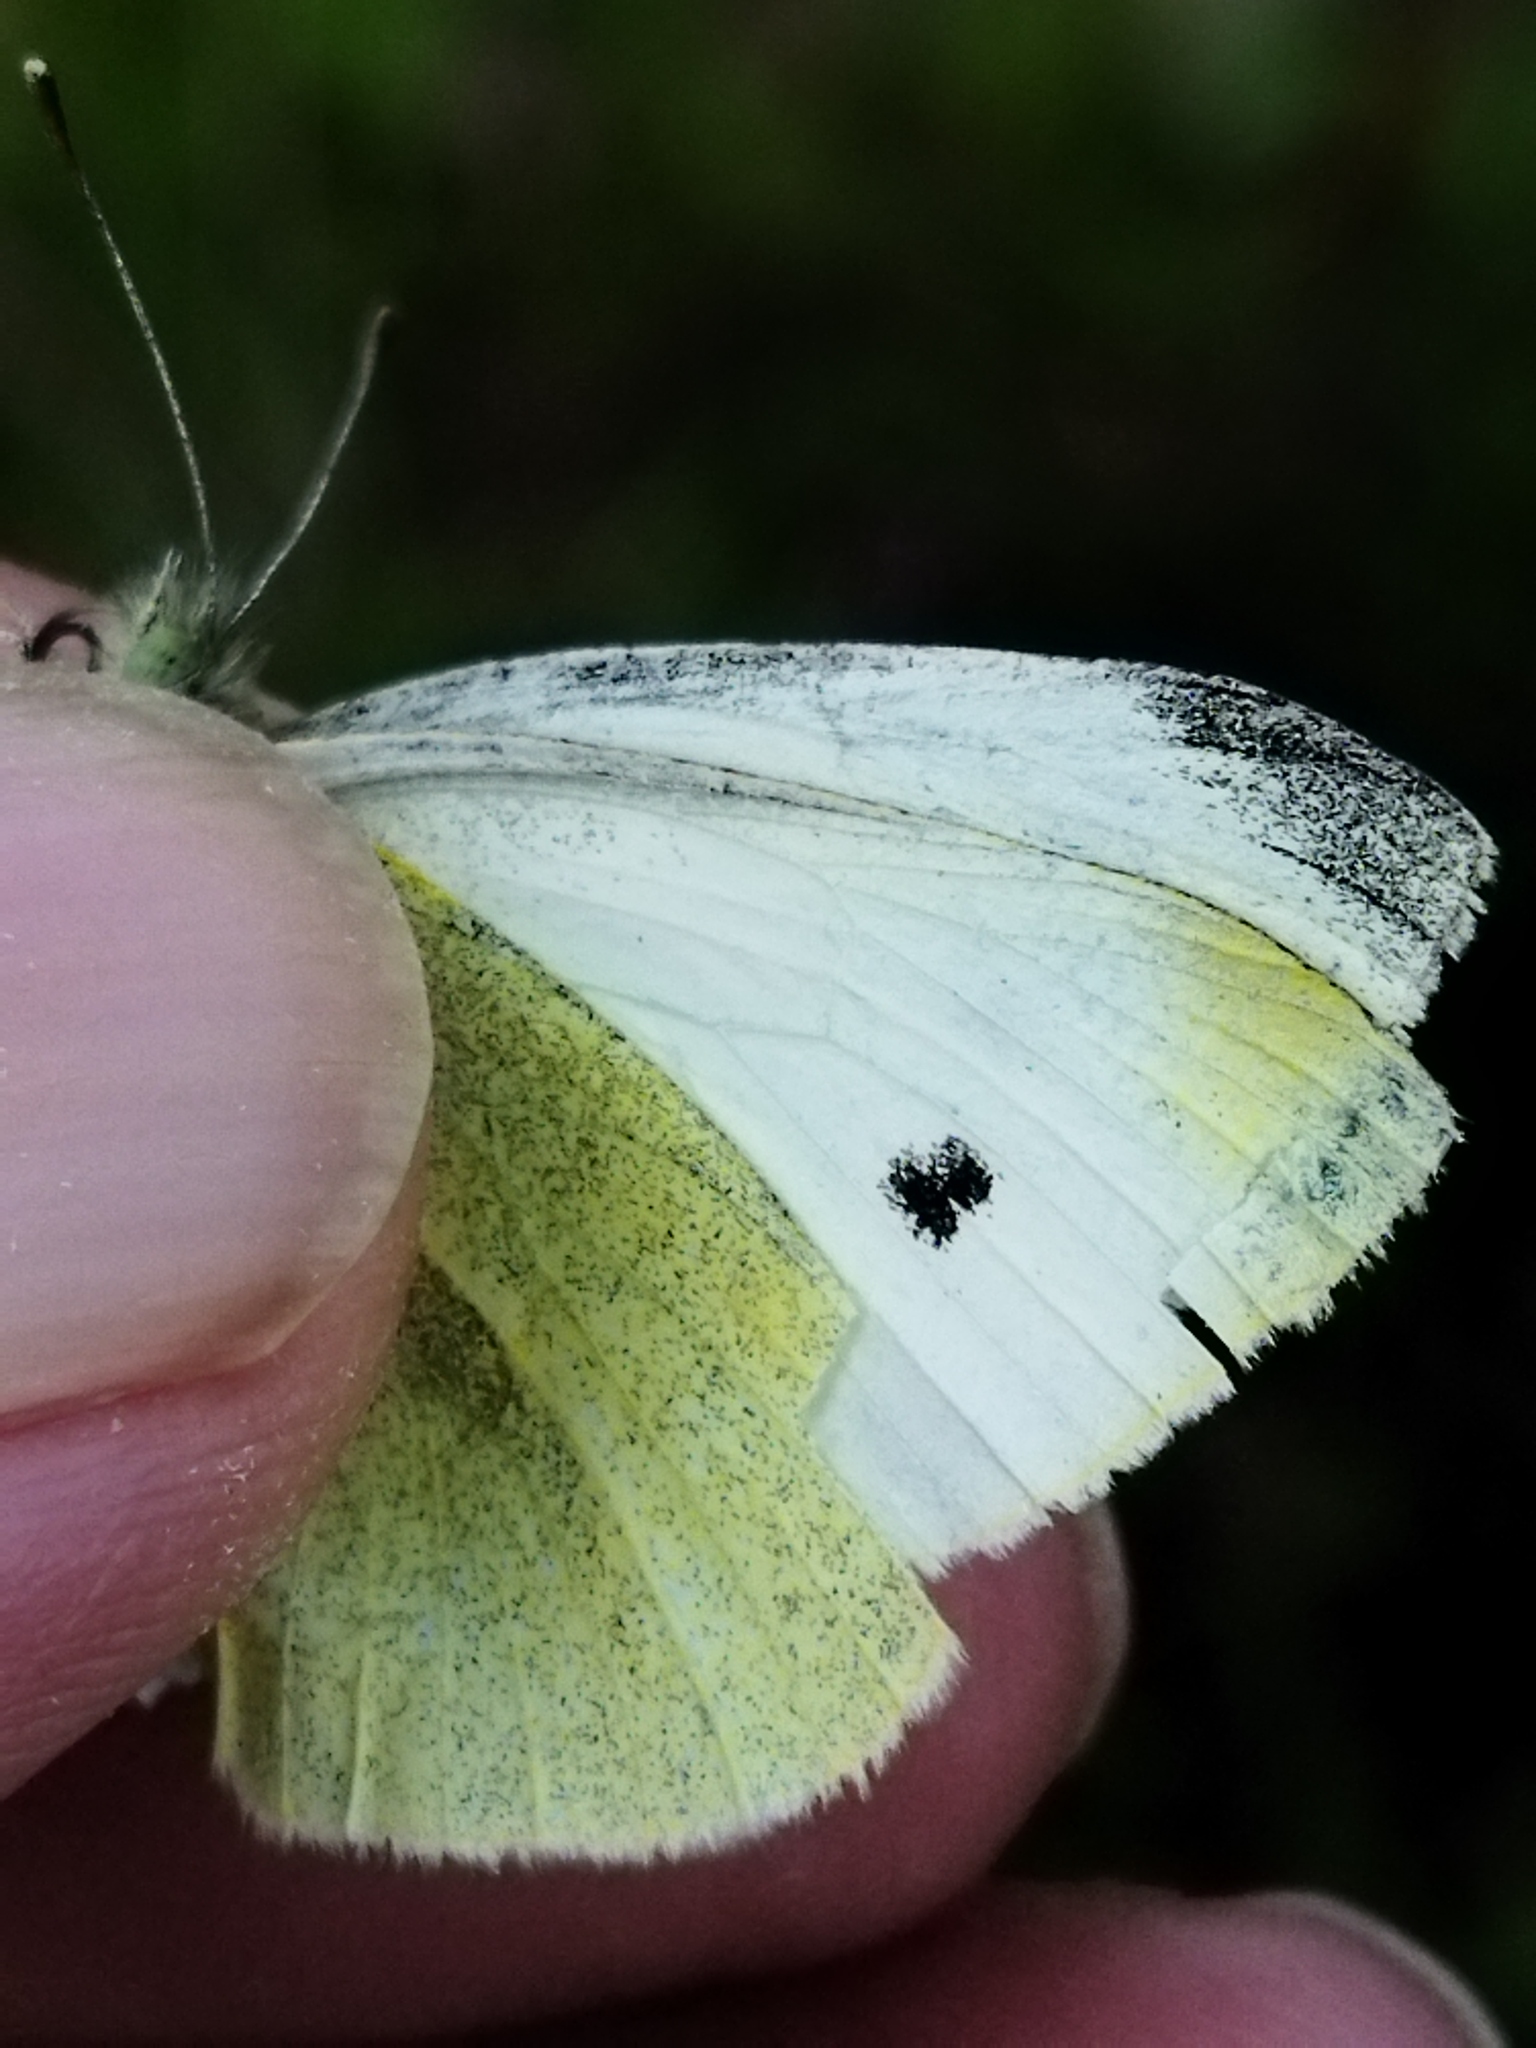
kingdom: Animalia
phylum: Arthropoda
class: Insecta
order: Lepidoptera
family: Pieridae
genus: Pieris
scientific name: Pieris rapae
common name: Small white
